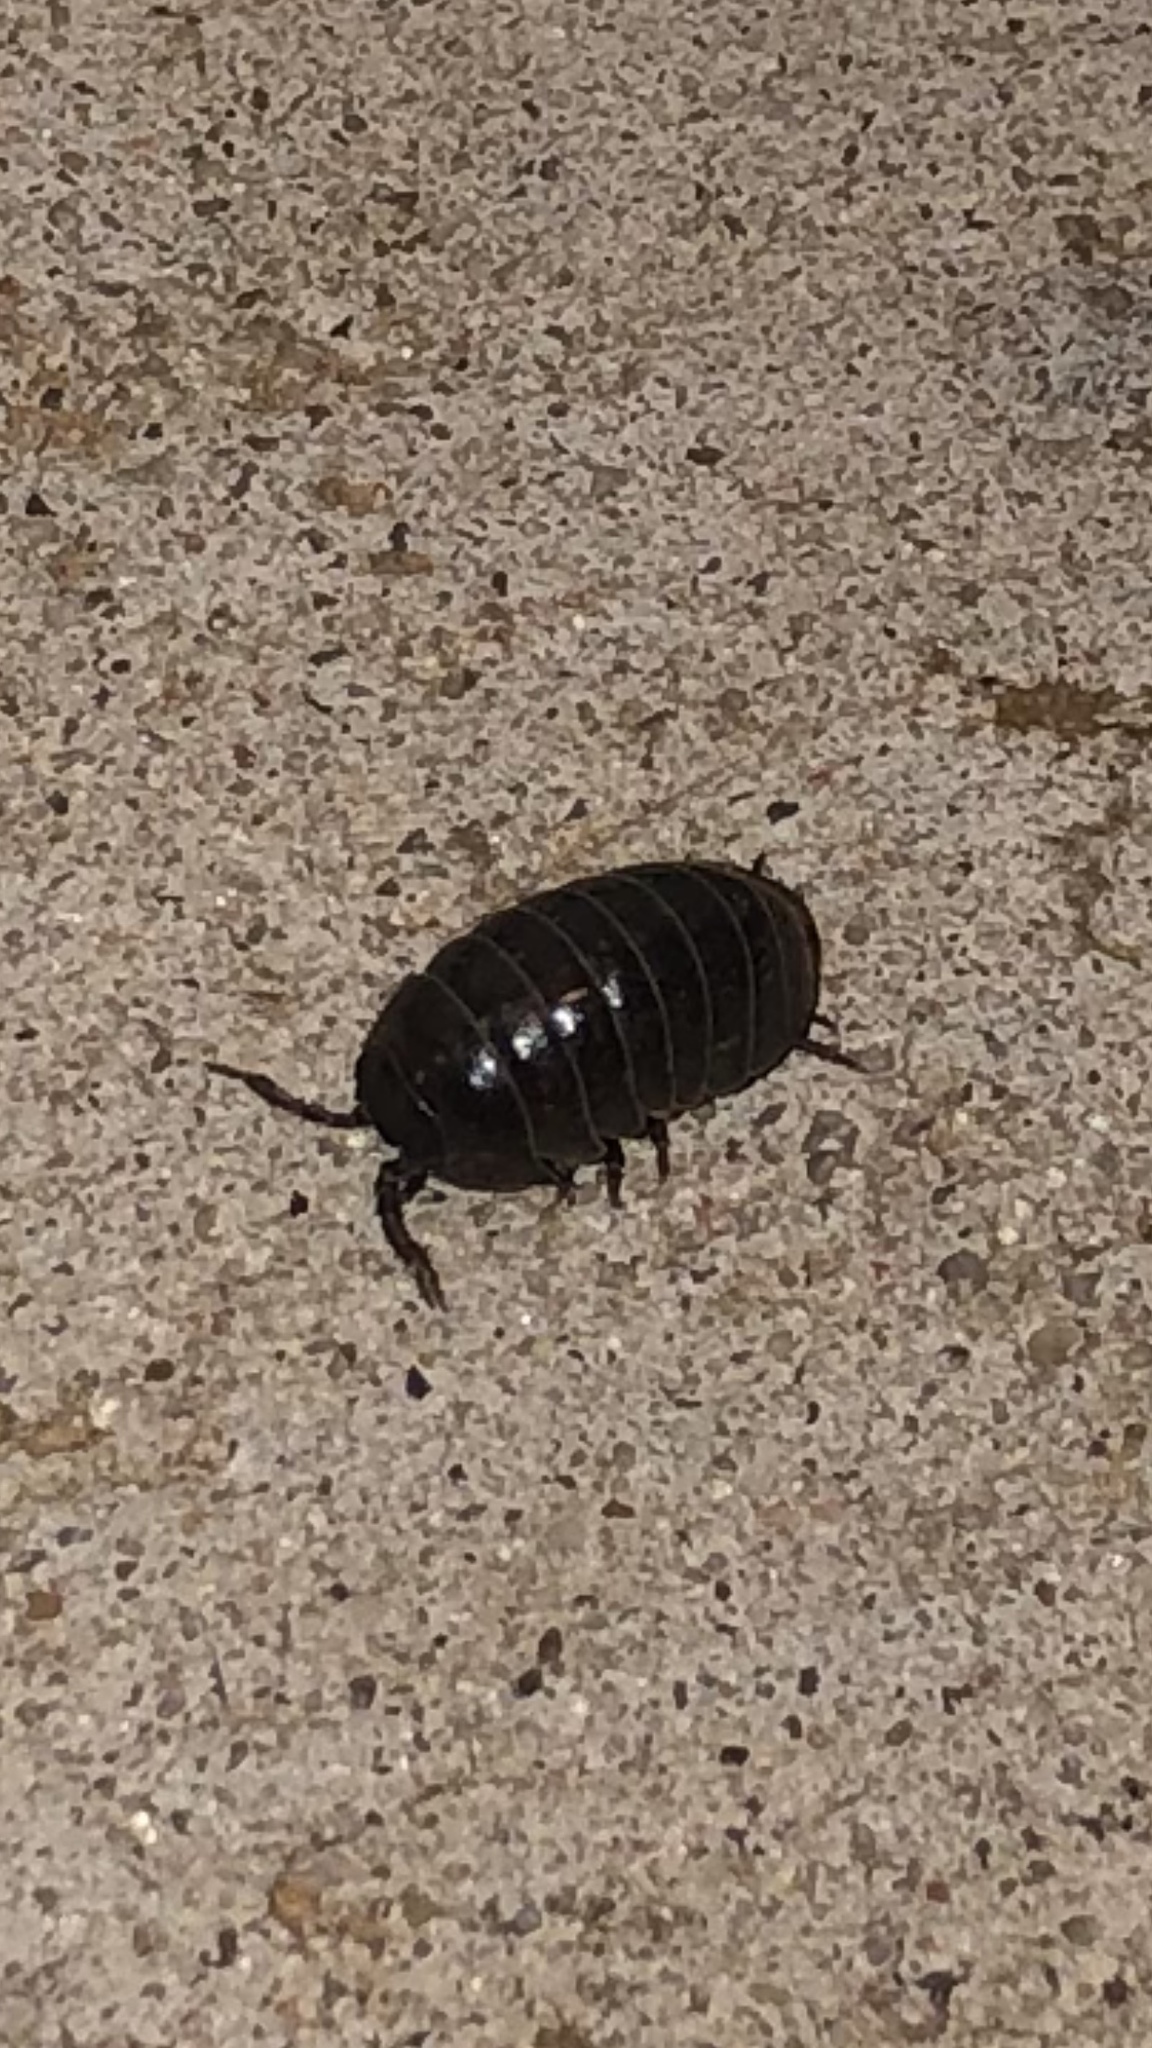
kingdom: Animalia
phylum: Arthropoda
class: Malacostraca
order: Isopoda
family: Armadillidiidae
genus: Armadillidium
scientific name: Armadillidium vulgare
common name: Common pill woodlouse
